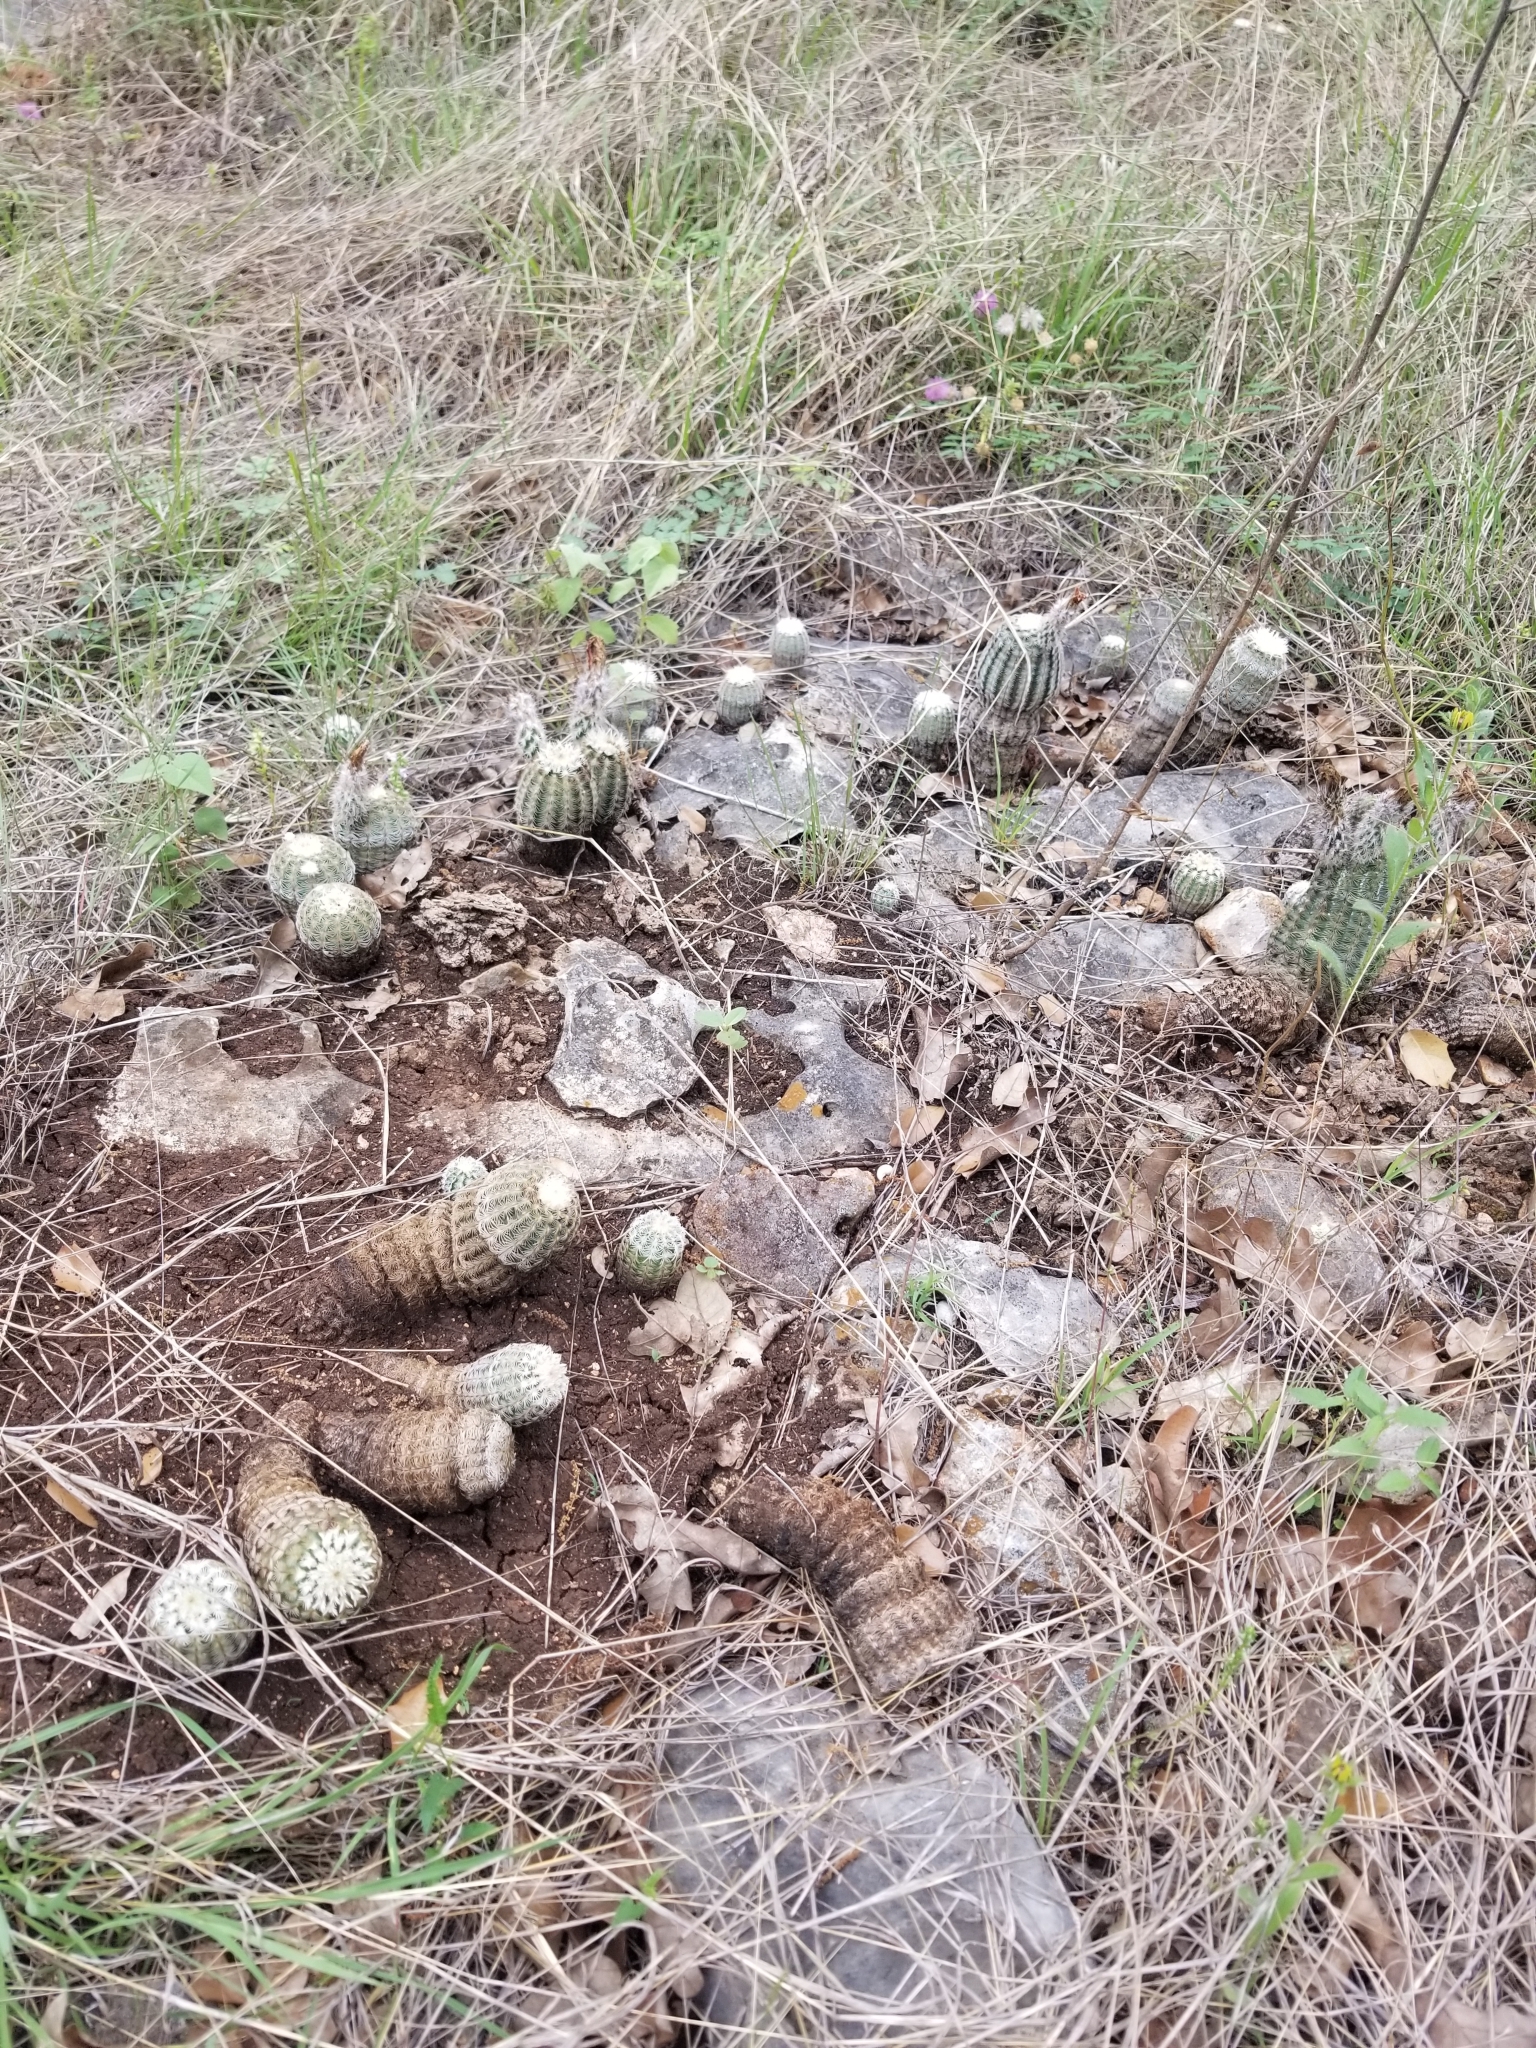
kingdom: Plantae
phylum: Tracheophyta
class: Magnoliopsida
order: Caryophyllales
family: Cactaceae
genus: Echinocereus
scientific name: Echinocereus reichenbachii
